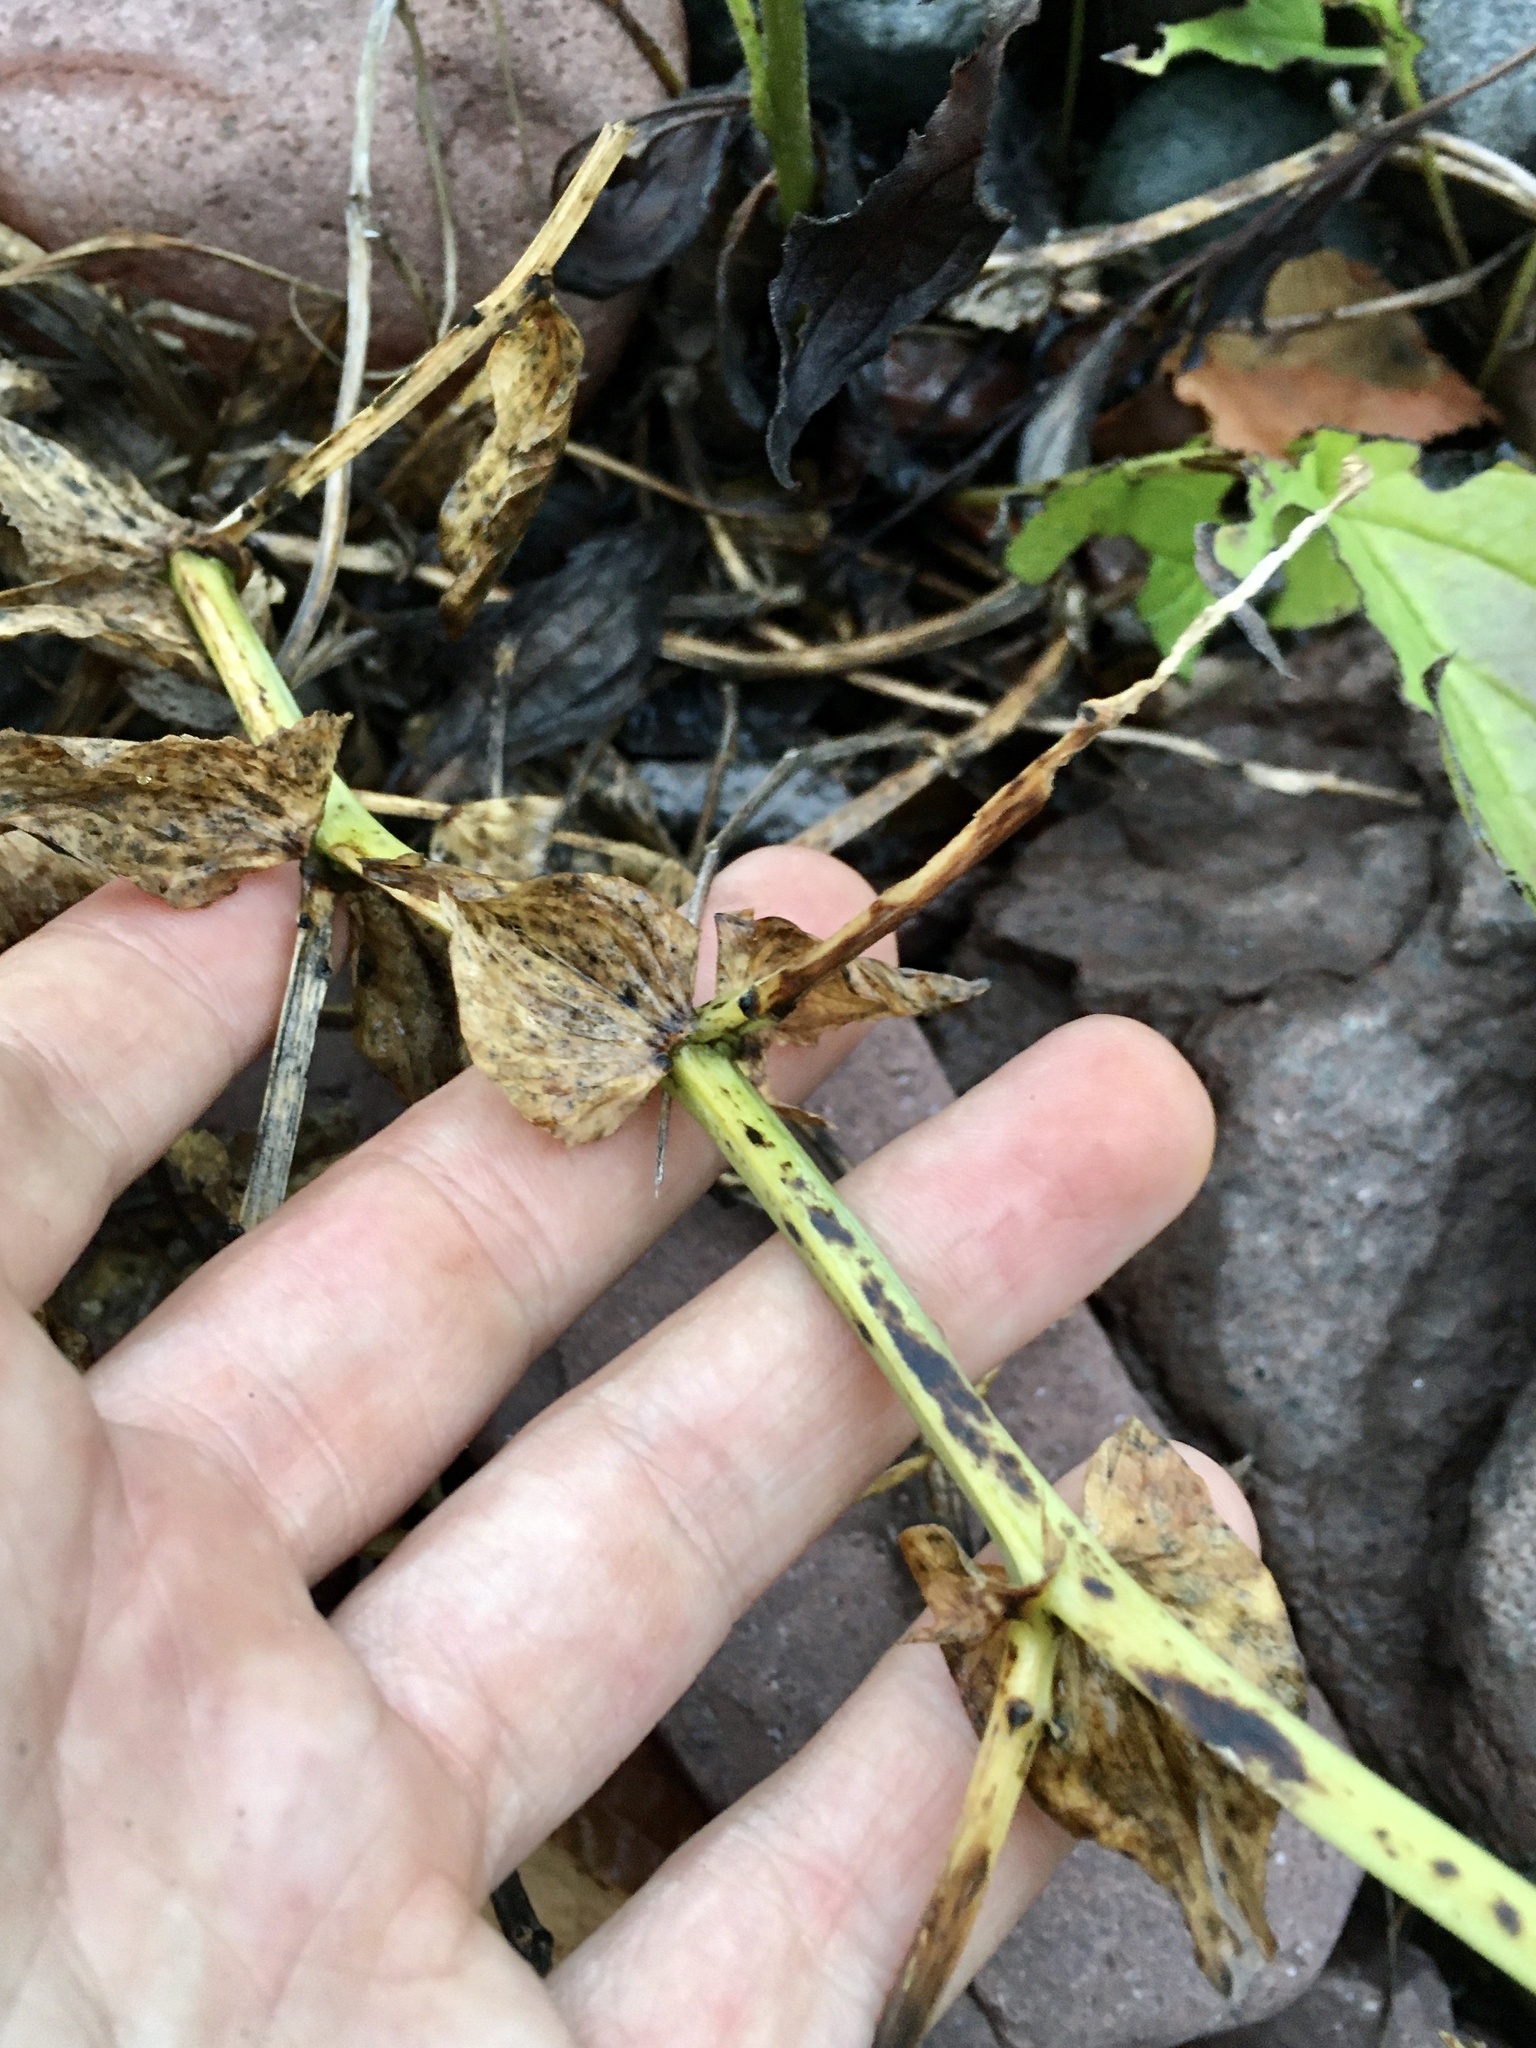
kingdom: Plantae
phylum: Tracheophyta
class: Magnoliopsida
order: Fabales
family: Fabaceae
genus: Lathyrus
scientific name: Lathyrus japonicus
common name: Sea pea
